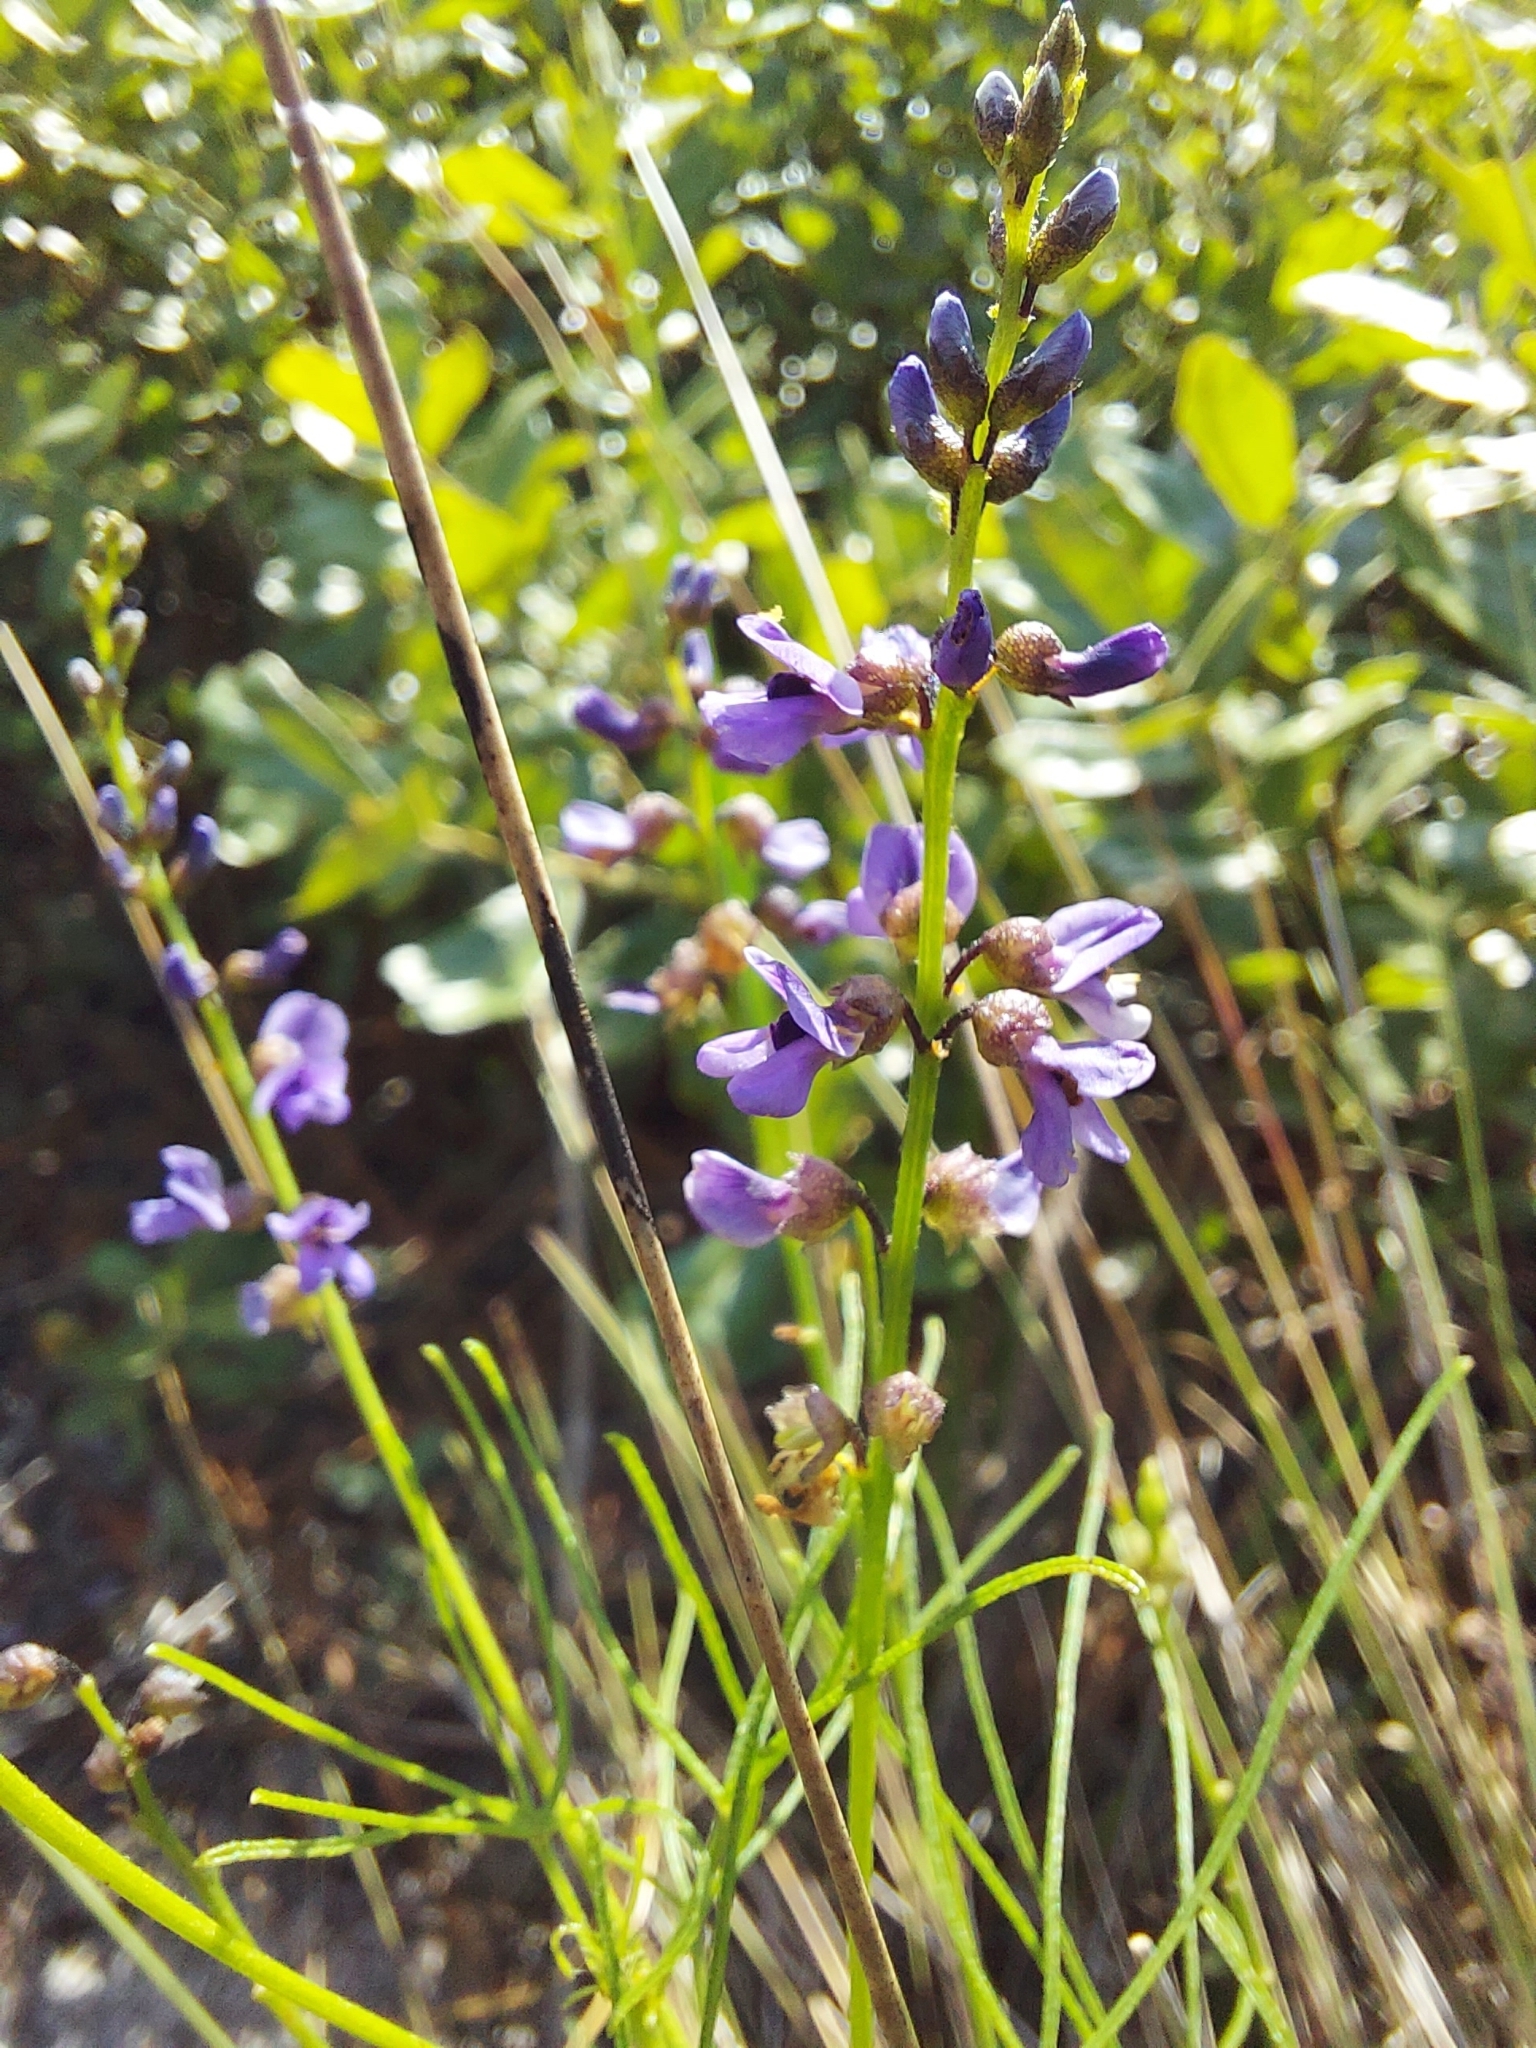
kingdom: Plantae
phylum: Tracheophyta
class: Magnoliopsida
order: Fabales
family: Fabaceae
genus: Orbexilum
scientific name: Orbexilum lupinellus
